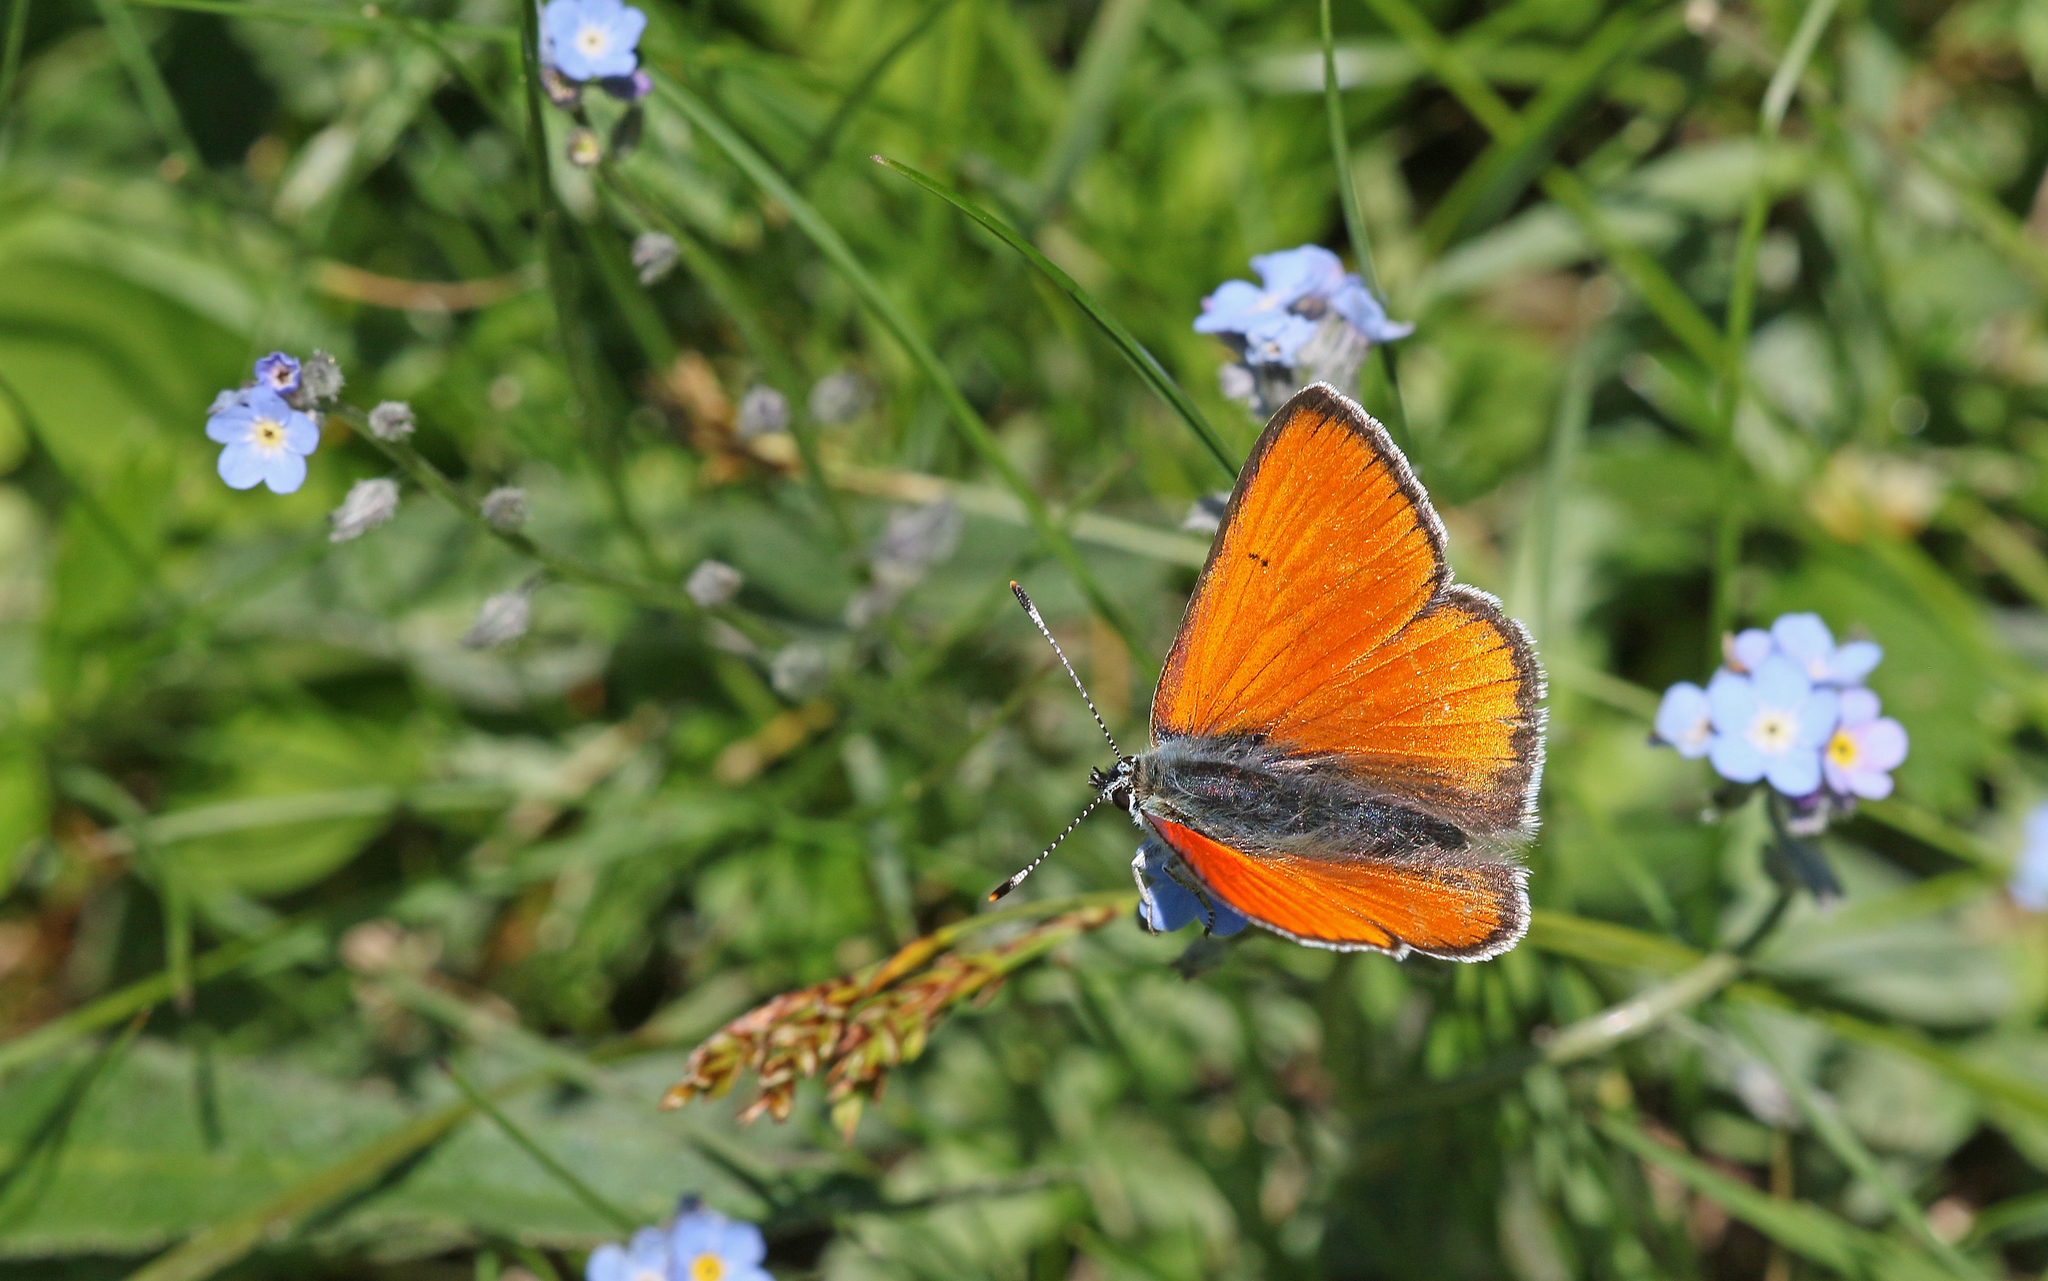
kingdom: Animalia
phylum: Arthropoda
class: Insecta
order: Lepidoptera
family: Lycaenidae
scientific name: Lycaenidae
